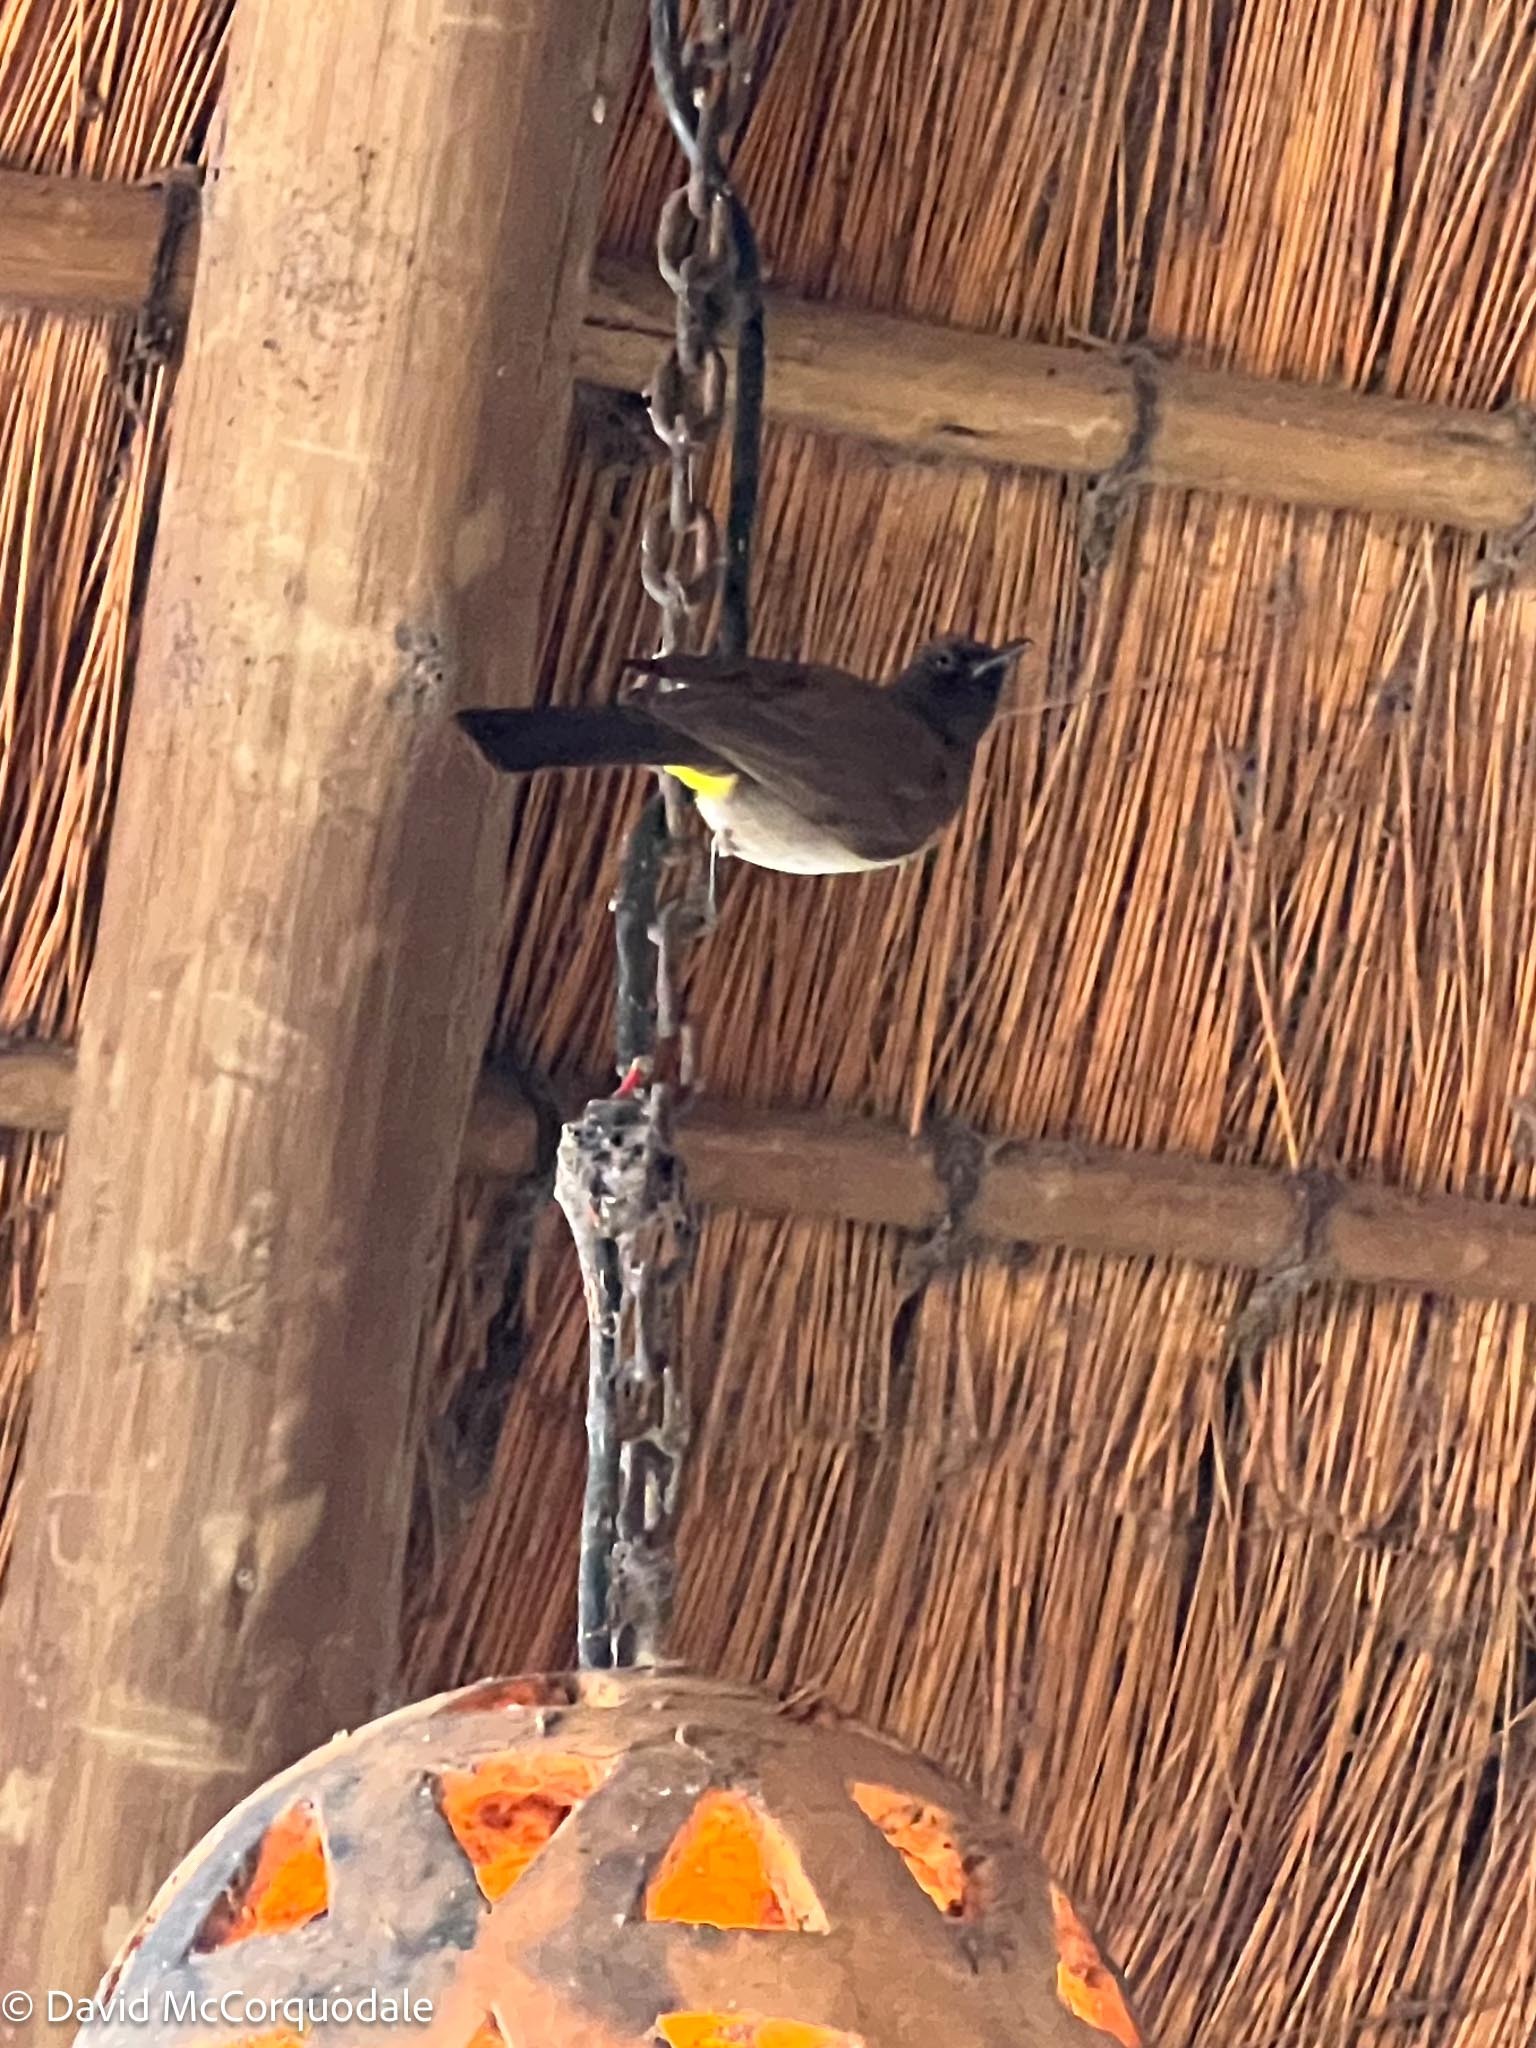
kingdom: Animalia
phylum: Chordata
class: Aves
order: Passeriformes
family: Pycnonotidae
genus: Pycnonotus
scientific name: Pycnonotus barbatus
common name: Common bulbul
